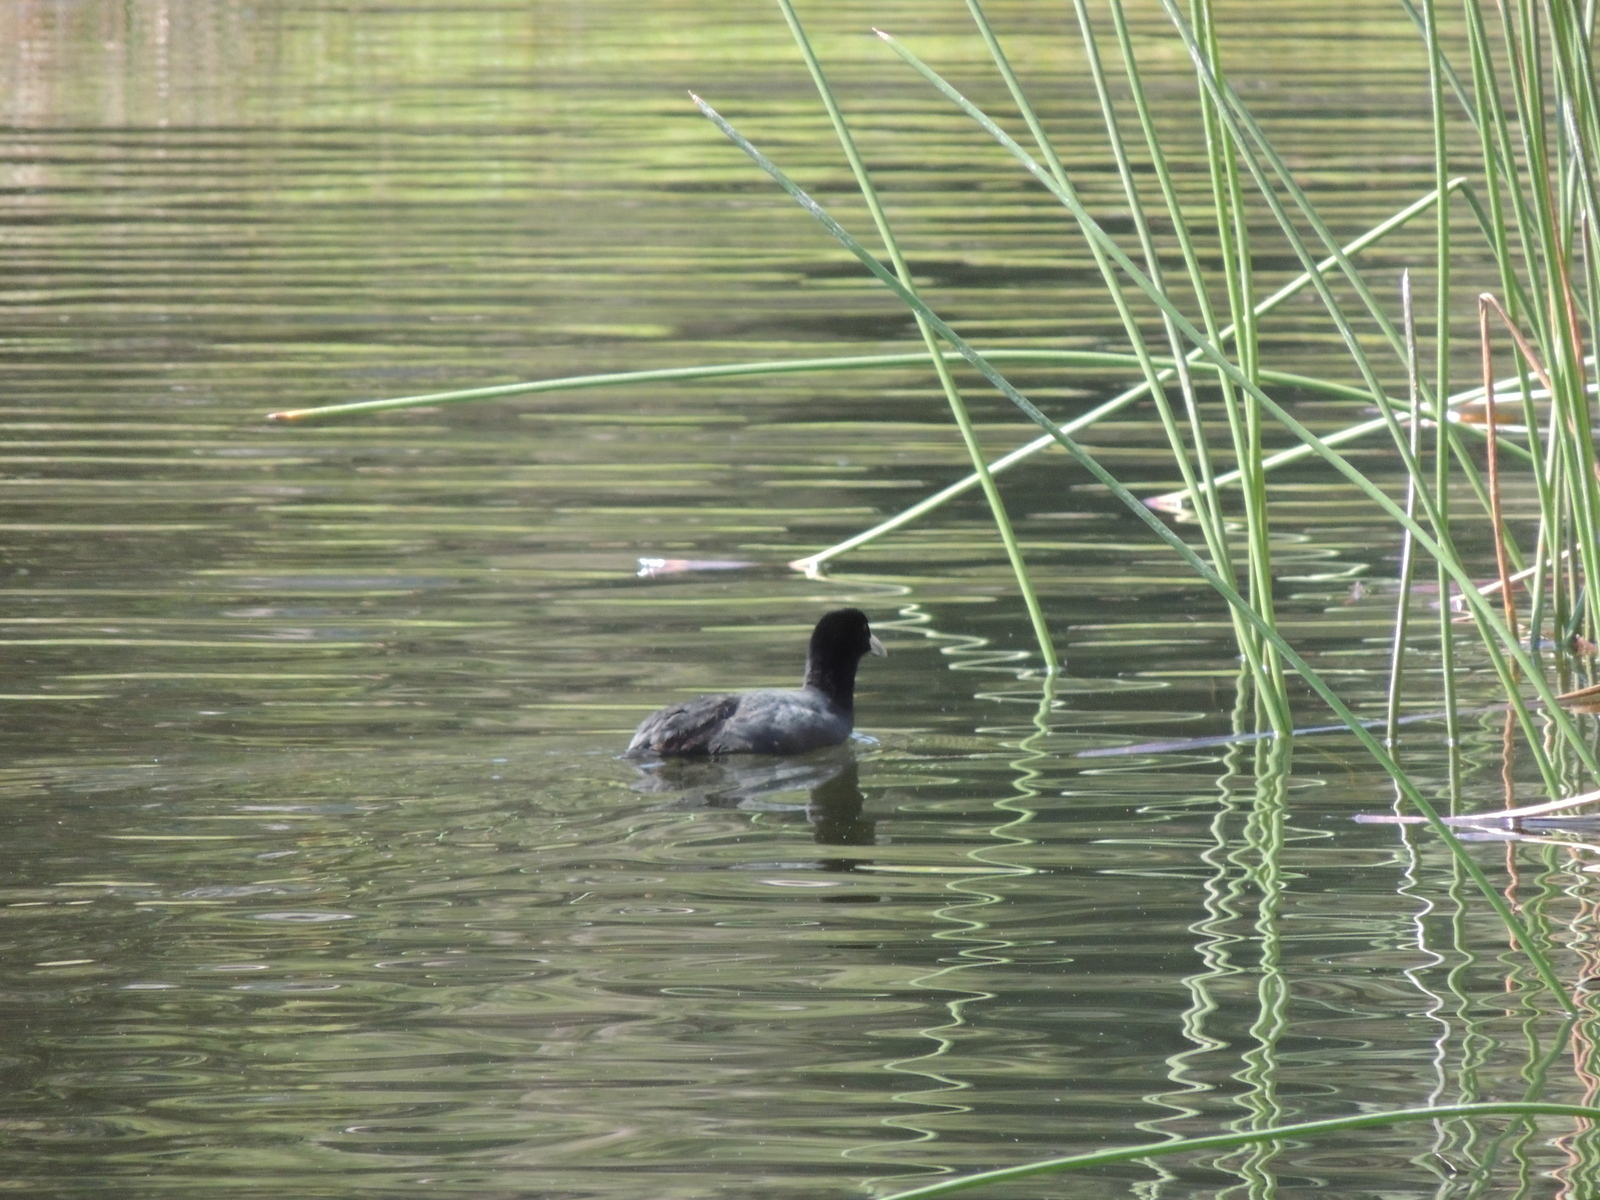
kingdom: Animalia
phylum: Chordata
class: Aves
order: Gruiformes
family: Rallidae
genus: Fulica
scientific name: Fulica atra
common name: Eurasian coot
